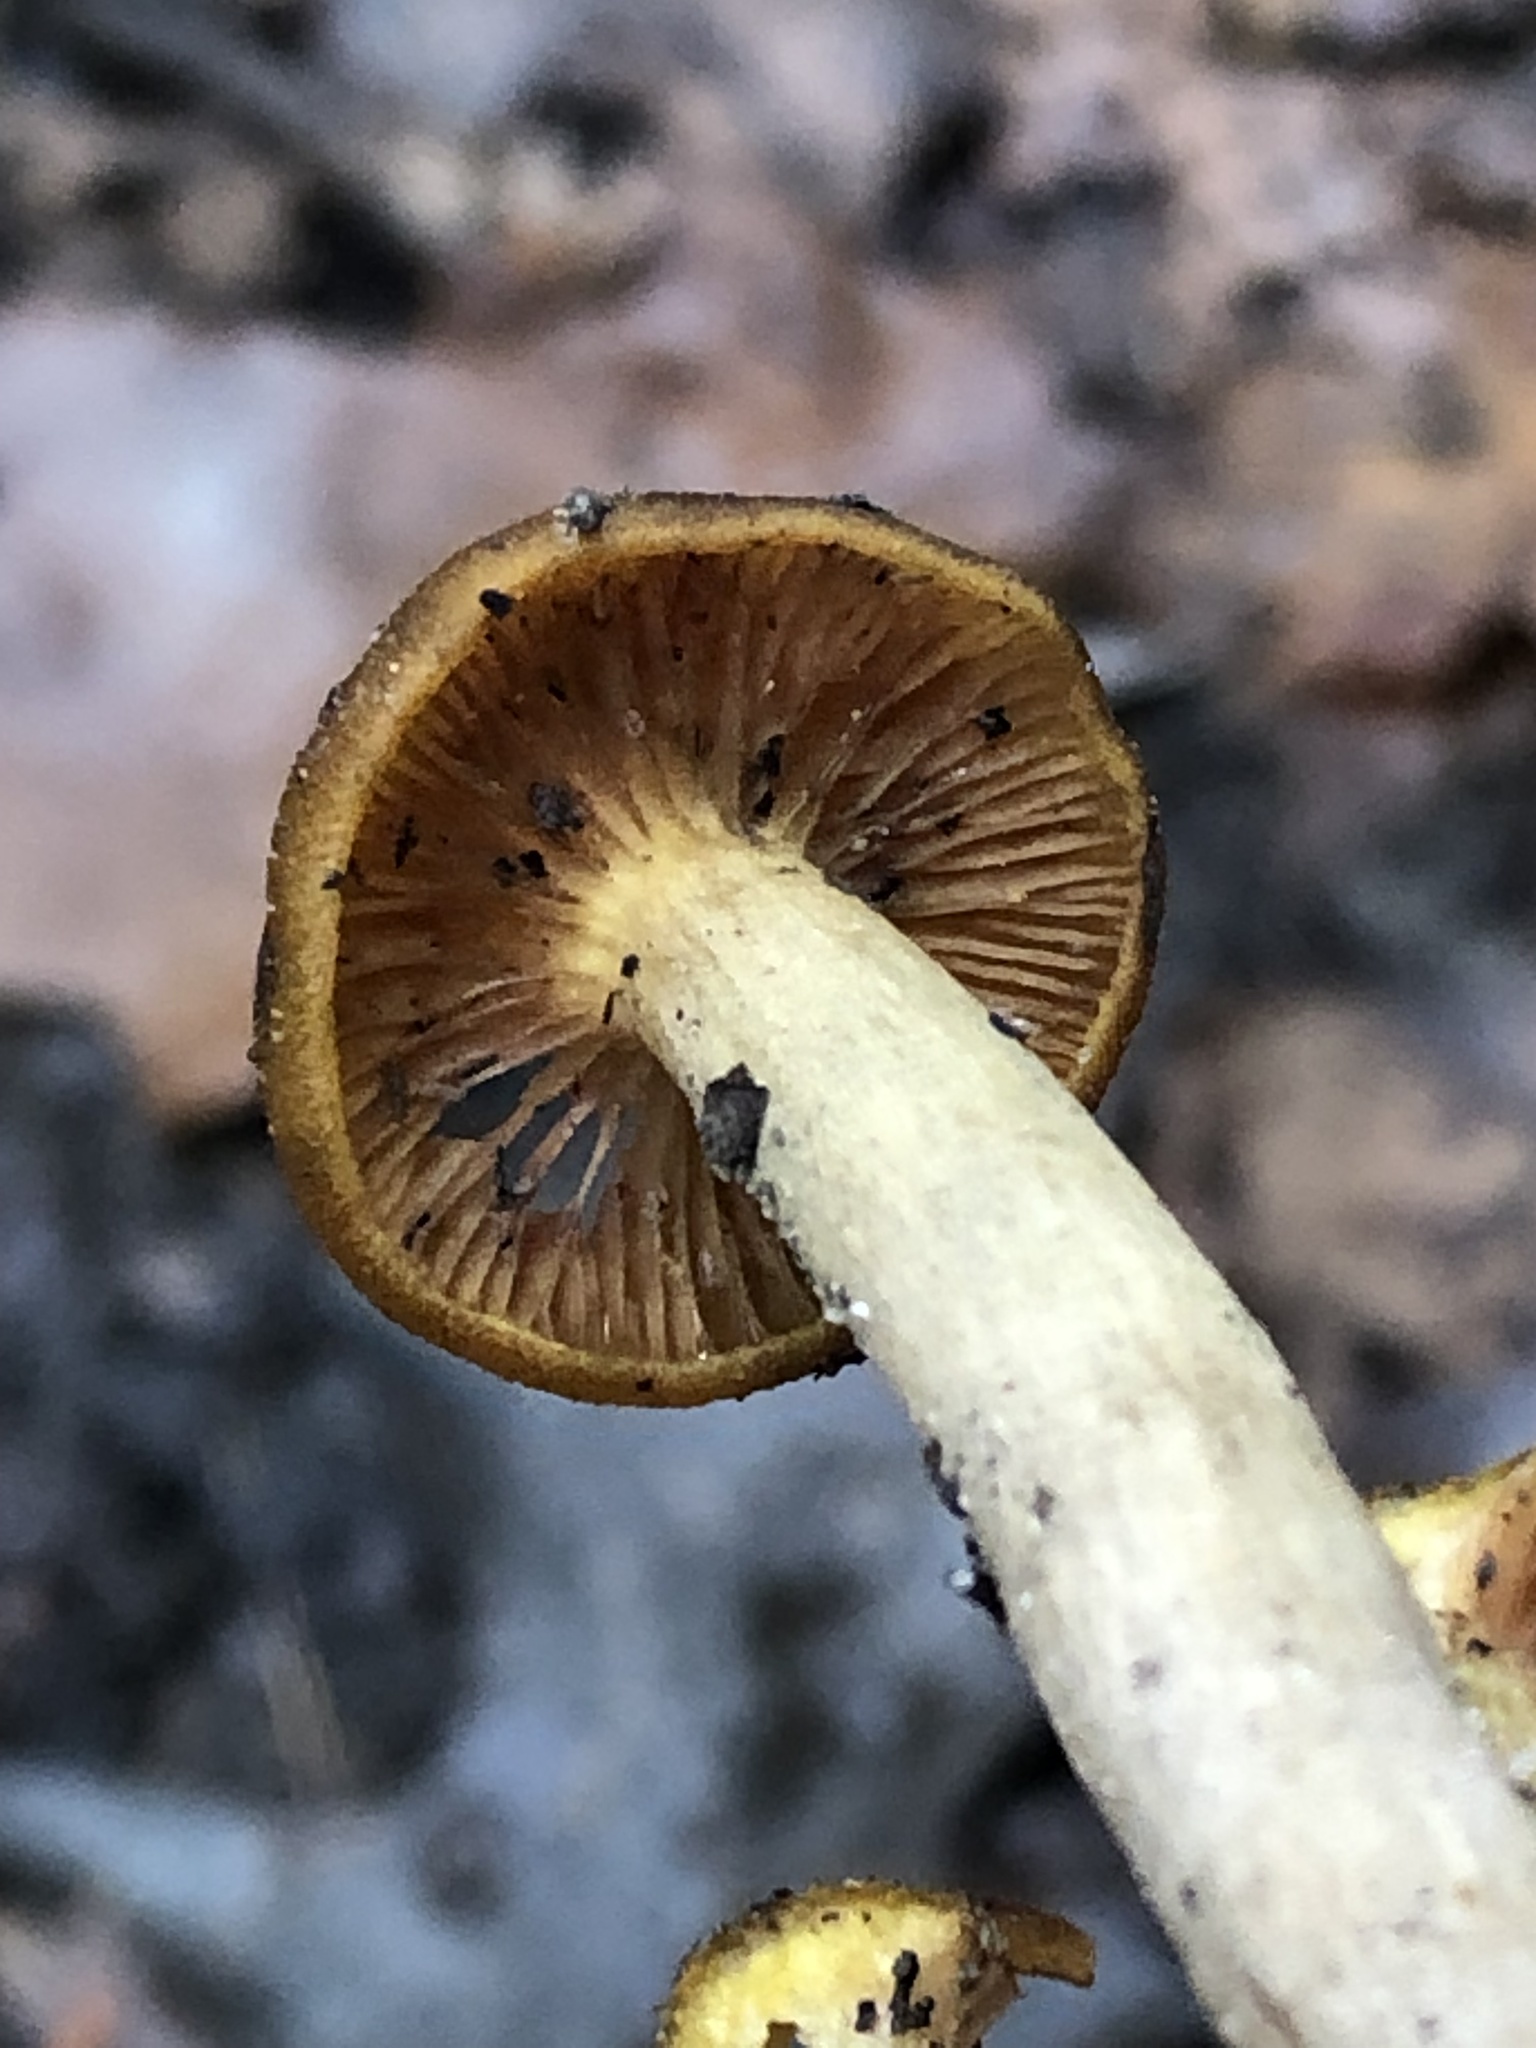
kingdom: Fungi
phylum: Basidiomycota
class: Agaricomycetes
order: Agaricales
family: Physalacriaceae
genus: Desarmillaria
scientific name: Desarmillaria caespitosa
